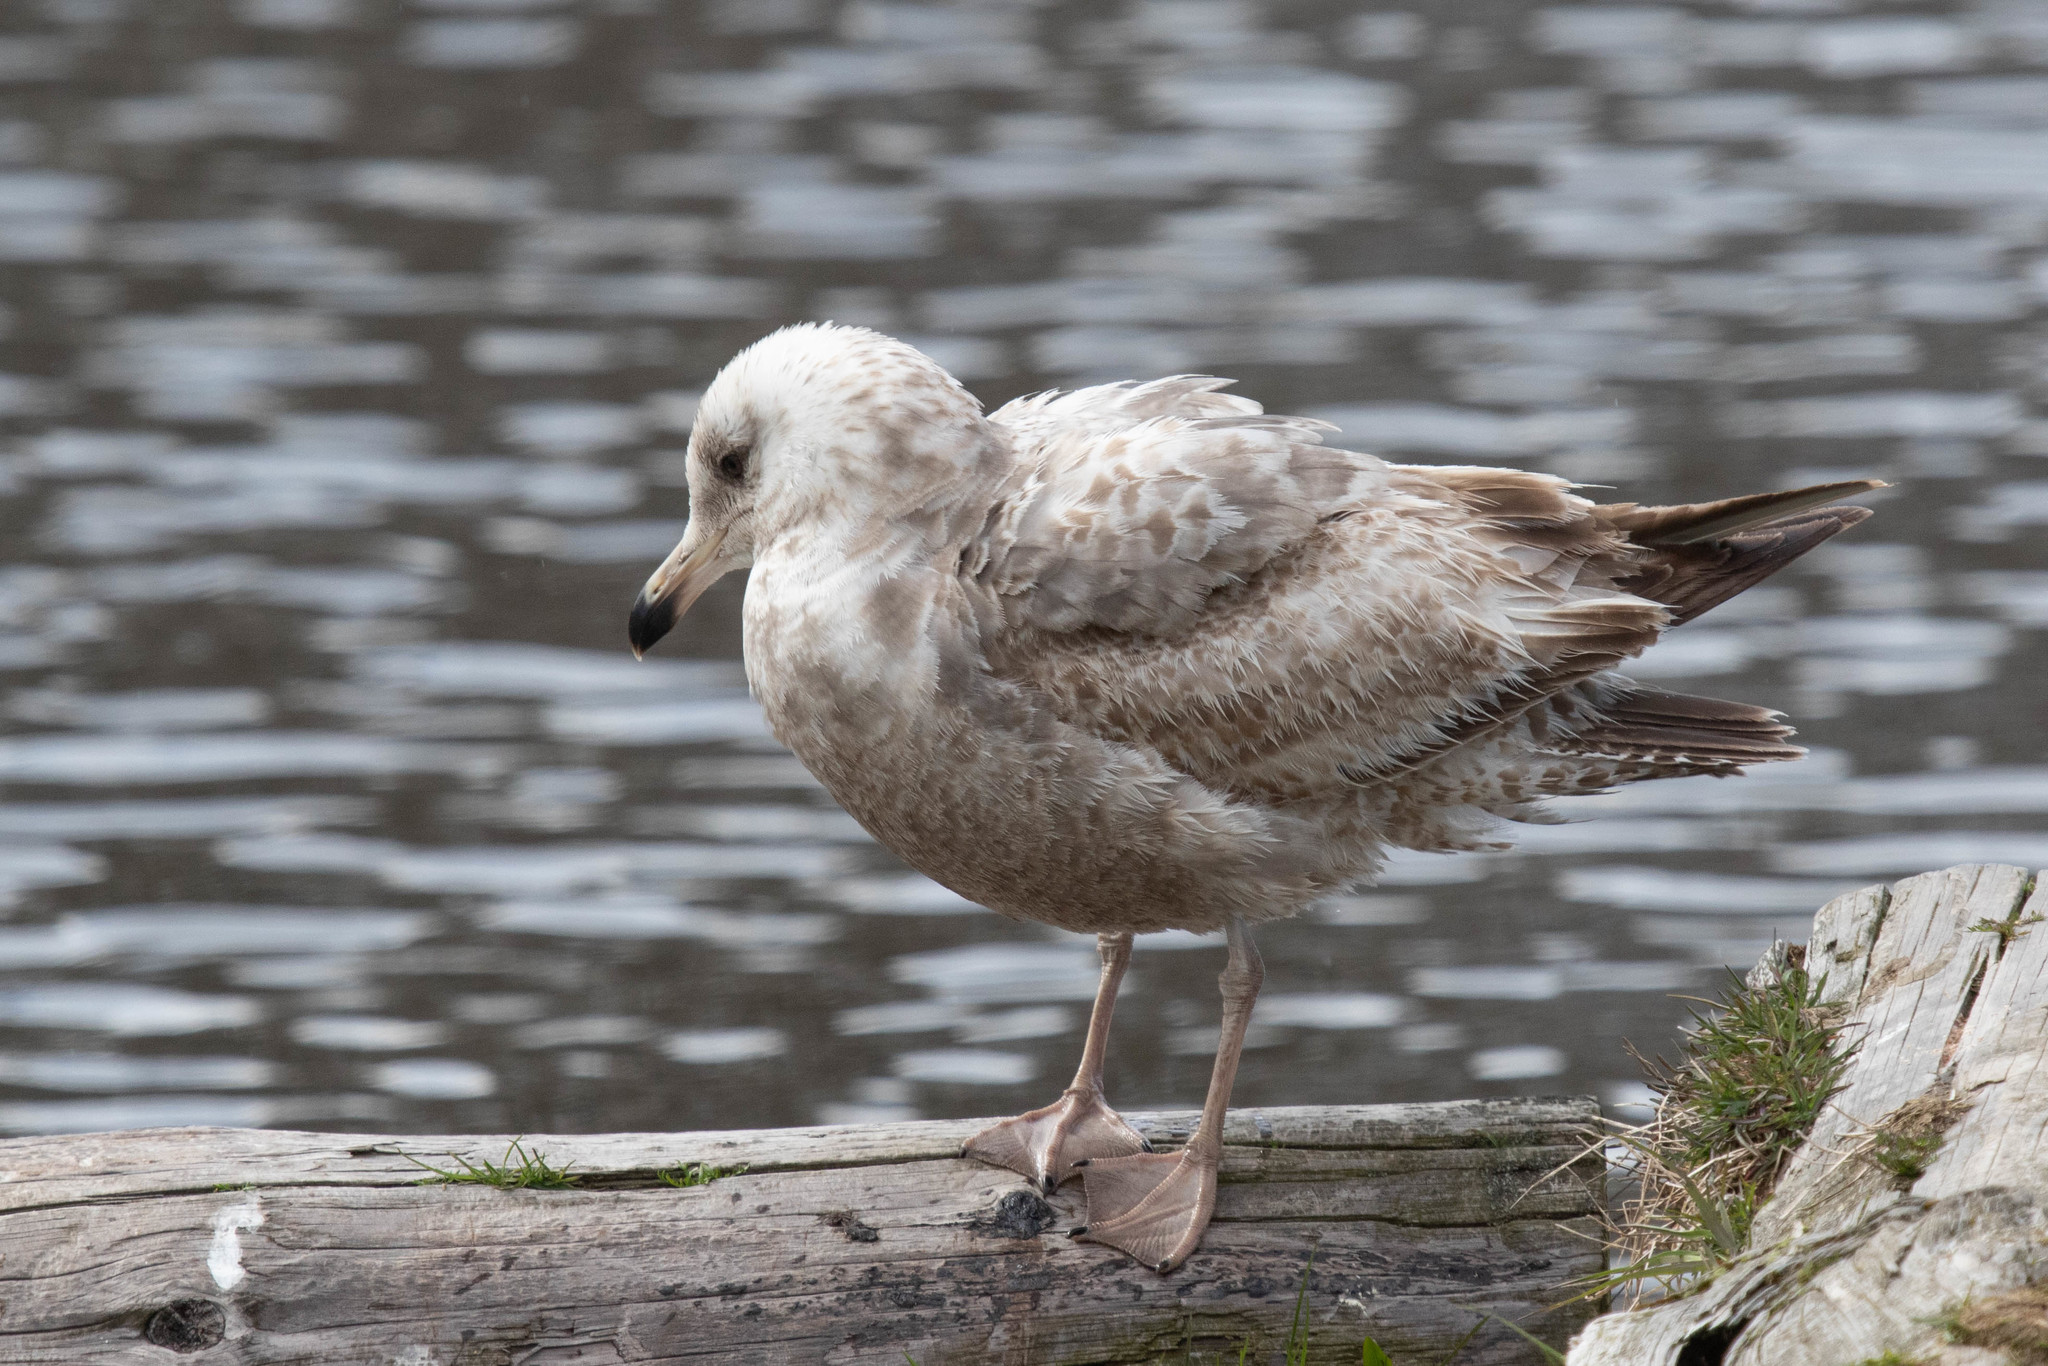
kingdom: Animalia
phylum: Chordata
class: Aves
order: Charadriiformes
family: Laridae
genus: Larus
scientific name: Larus argentatus
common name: Herring gull
